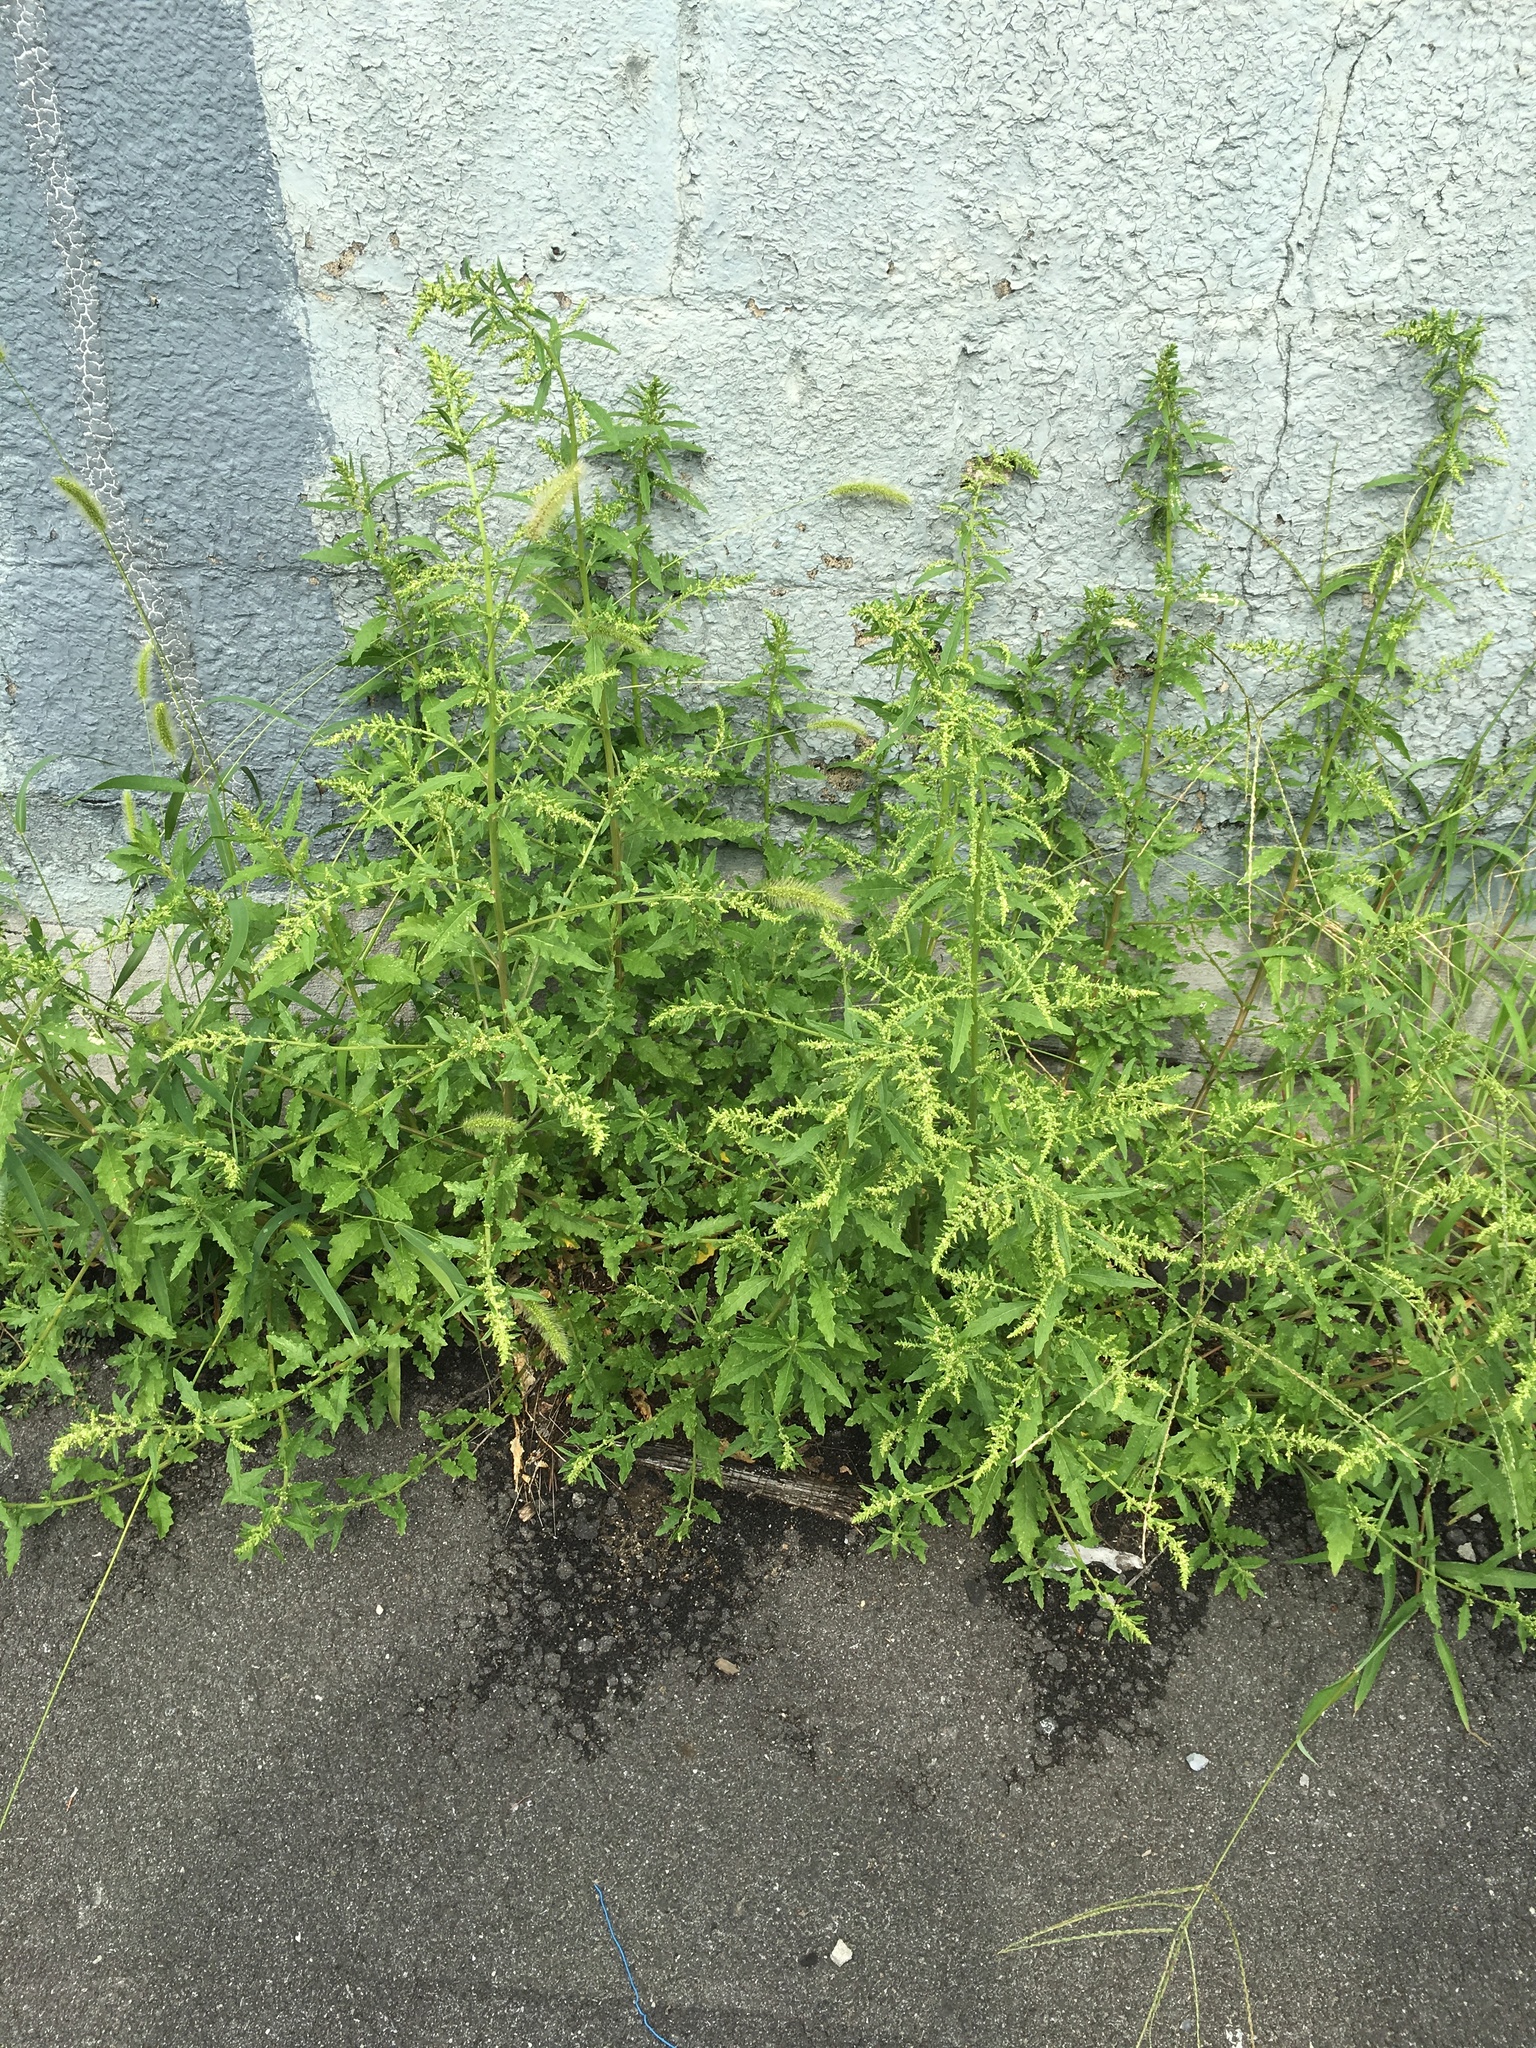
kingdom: Plantae
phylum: Tracheophyta
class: Magnoliopsida
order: Caryophyllales
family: Amaranthaceae
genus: Dysphania
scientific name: Dysphania ambrosioides
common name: Wormseed
